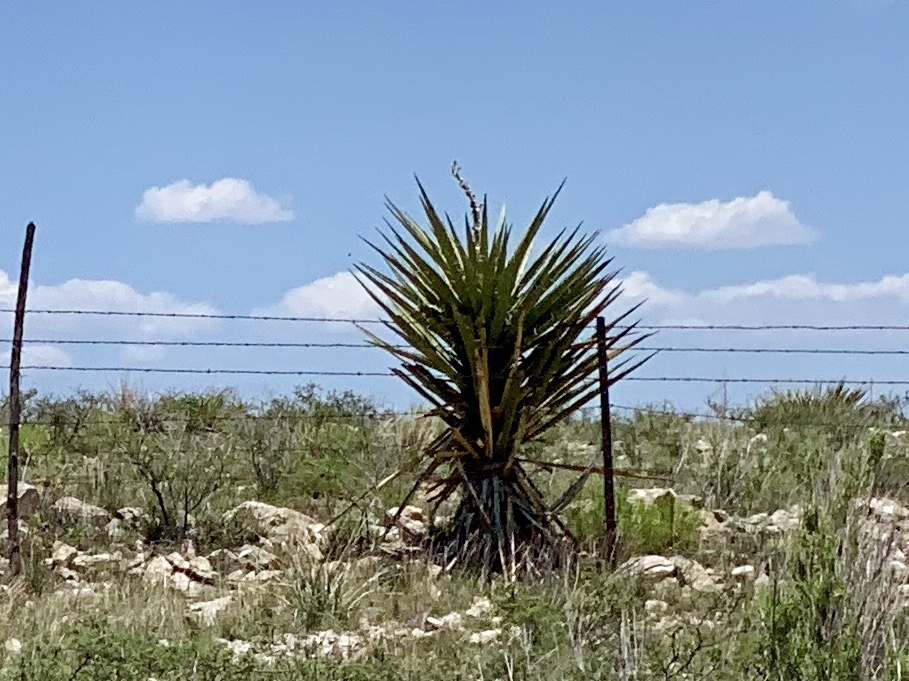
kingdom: Plantae
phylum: Tracheophyta
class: Liliopsida
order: Asparagales
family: Asparagaceae
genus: Yucca
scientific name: Yucca treculiana
